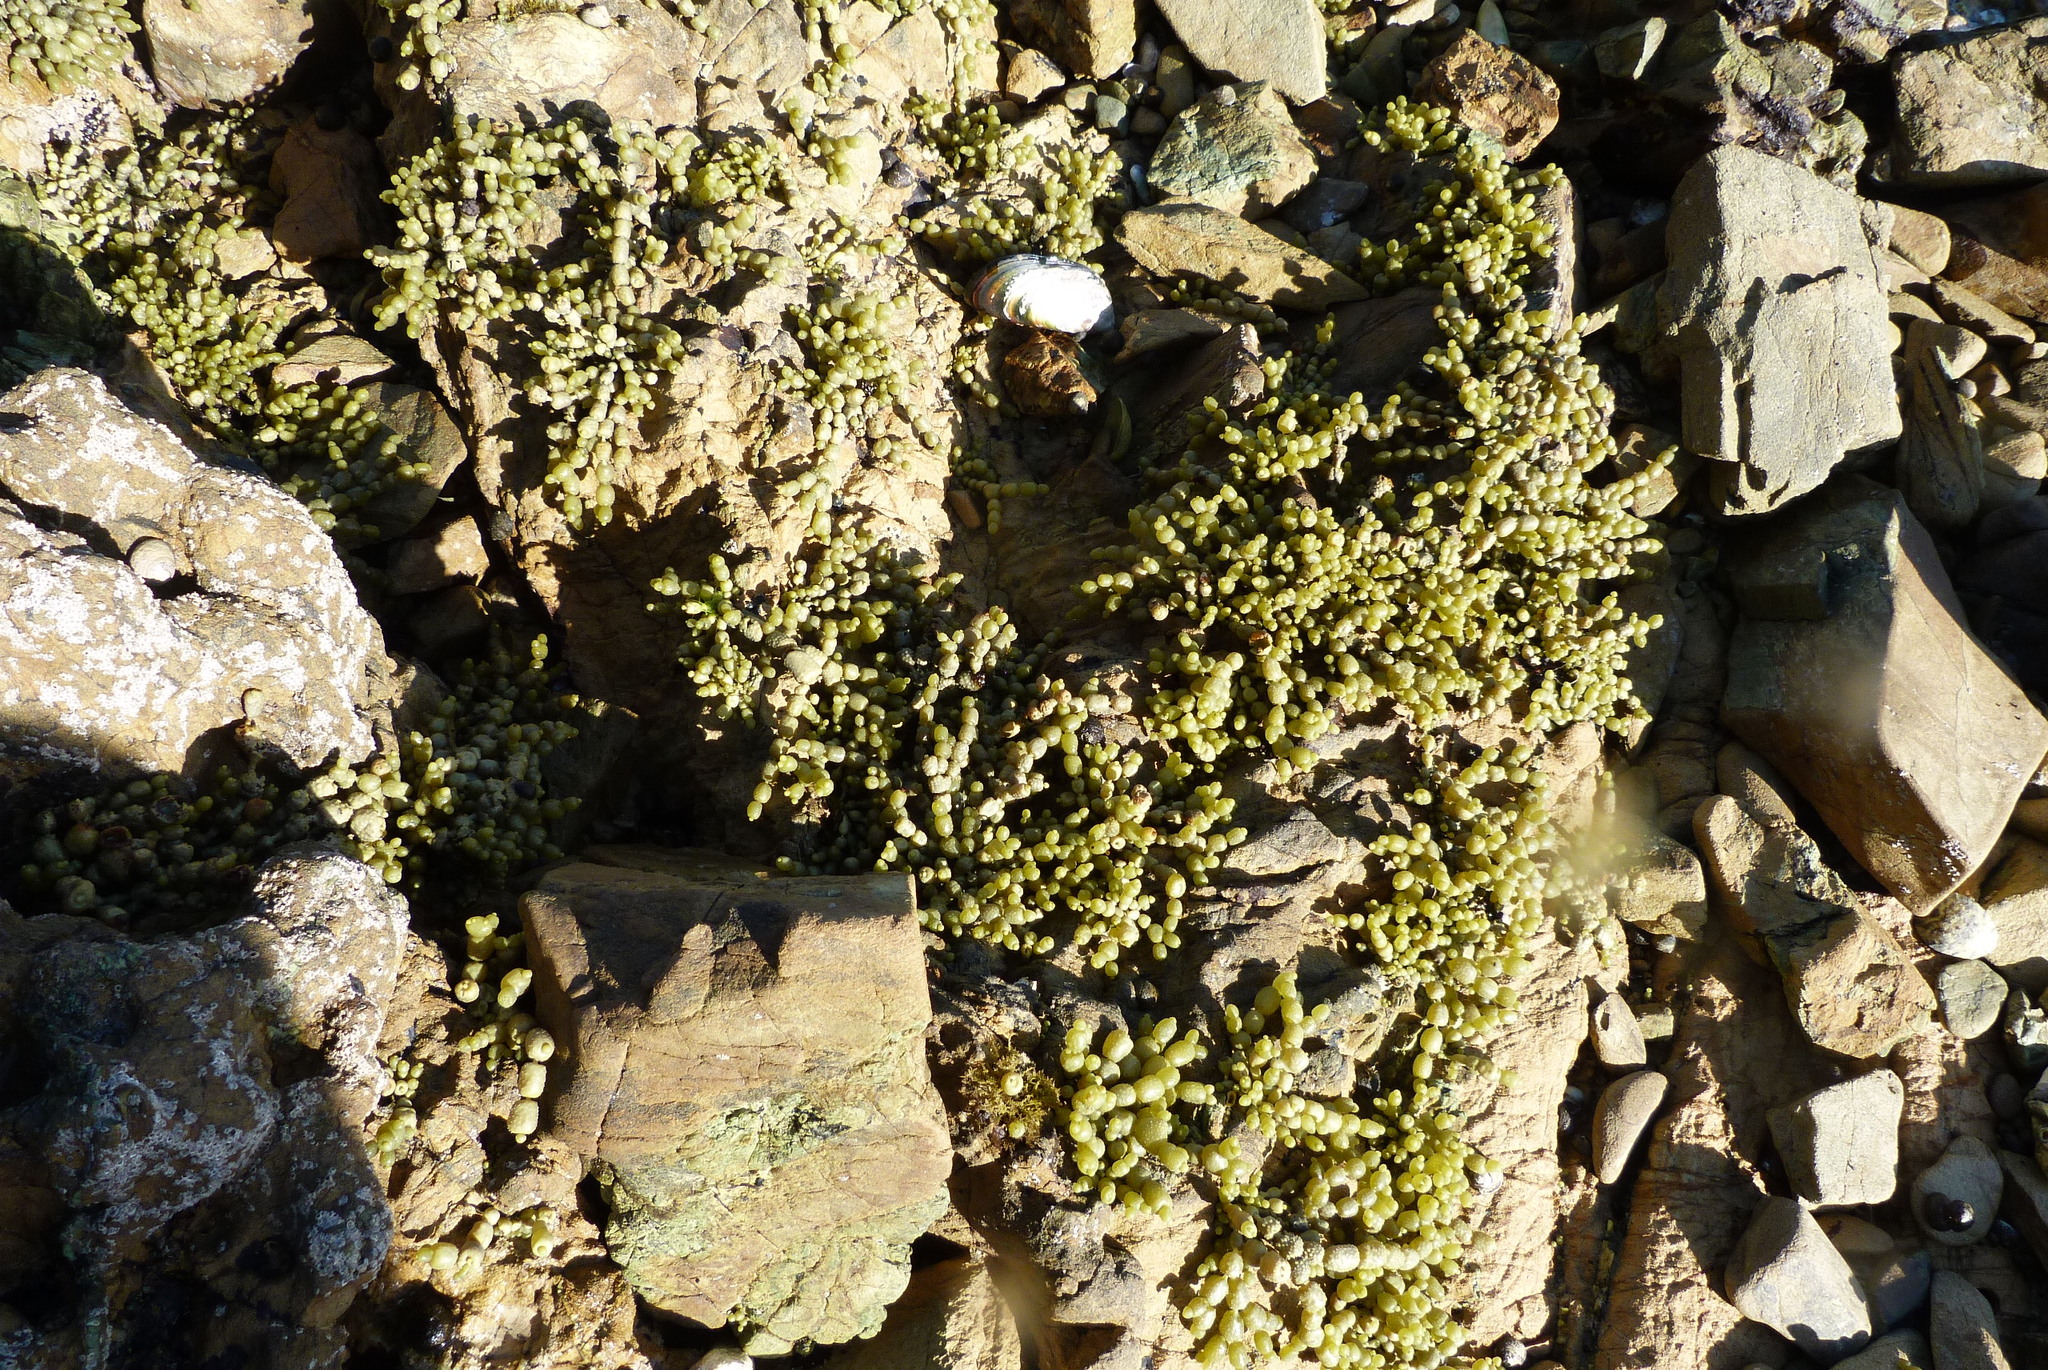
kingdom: Chromista
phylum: Ochrophyta
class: Phaeophyceae
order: Fucales
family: Hormosiraceae
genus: Hormosira
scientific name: Hormosira banksii
